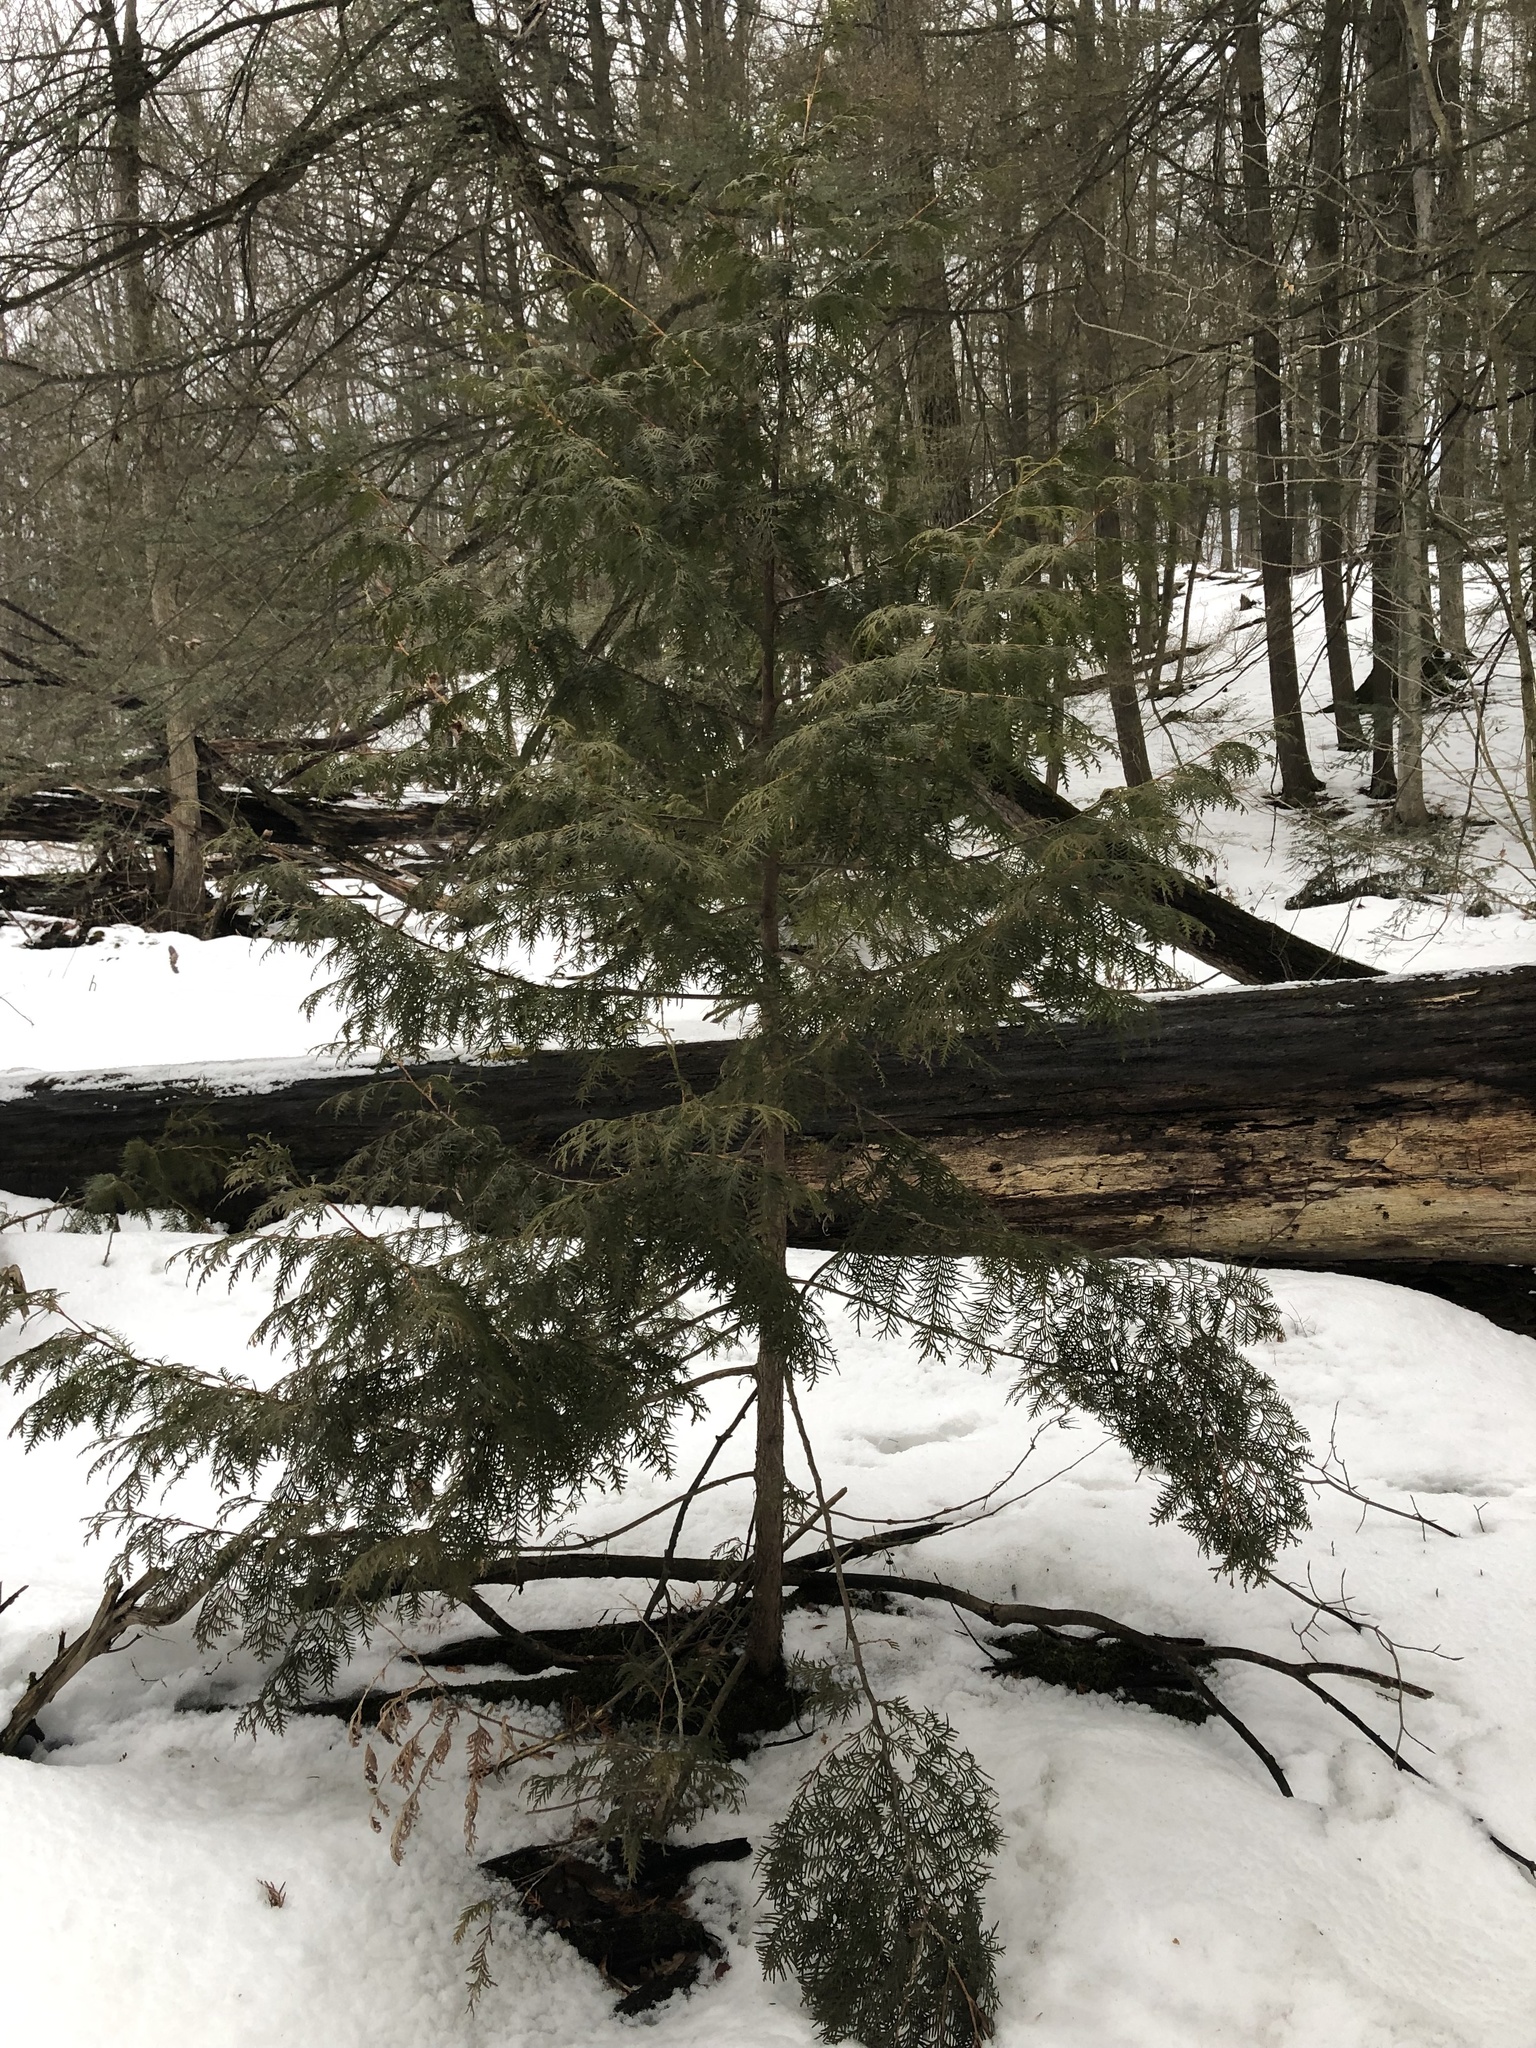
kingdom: Plantae
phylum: Tracheophyta
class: Pinopsida
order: Pinales
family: Cupressaceae
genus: Thuja
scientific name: Thuja occidentalis
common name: Northern white-cedar
